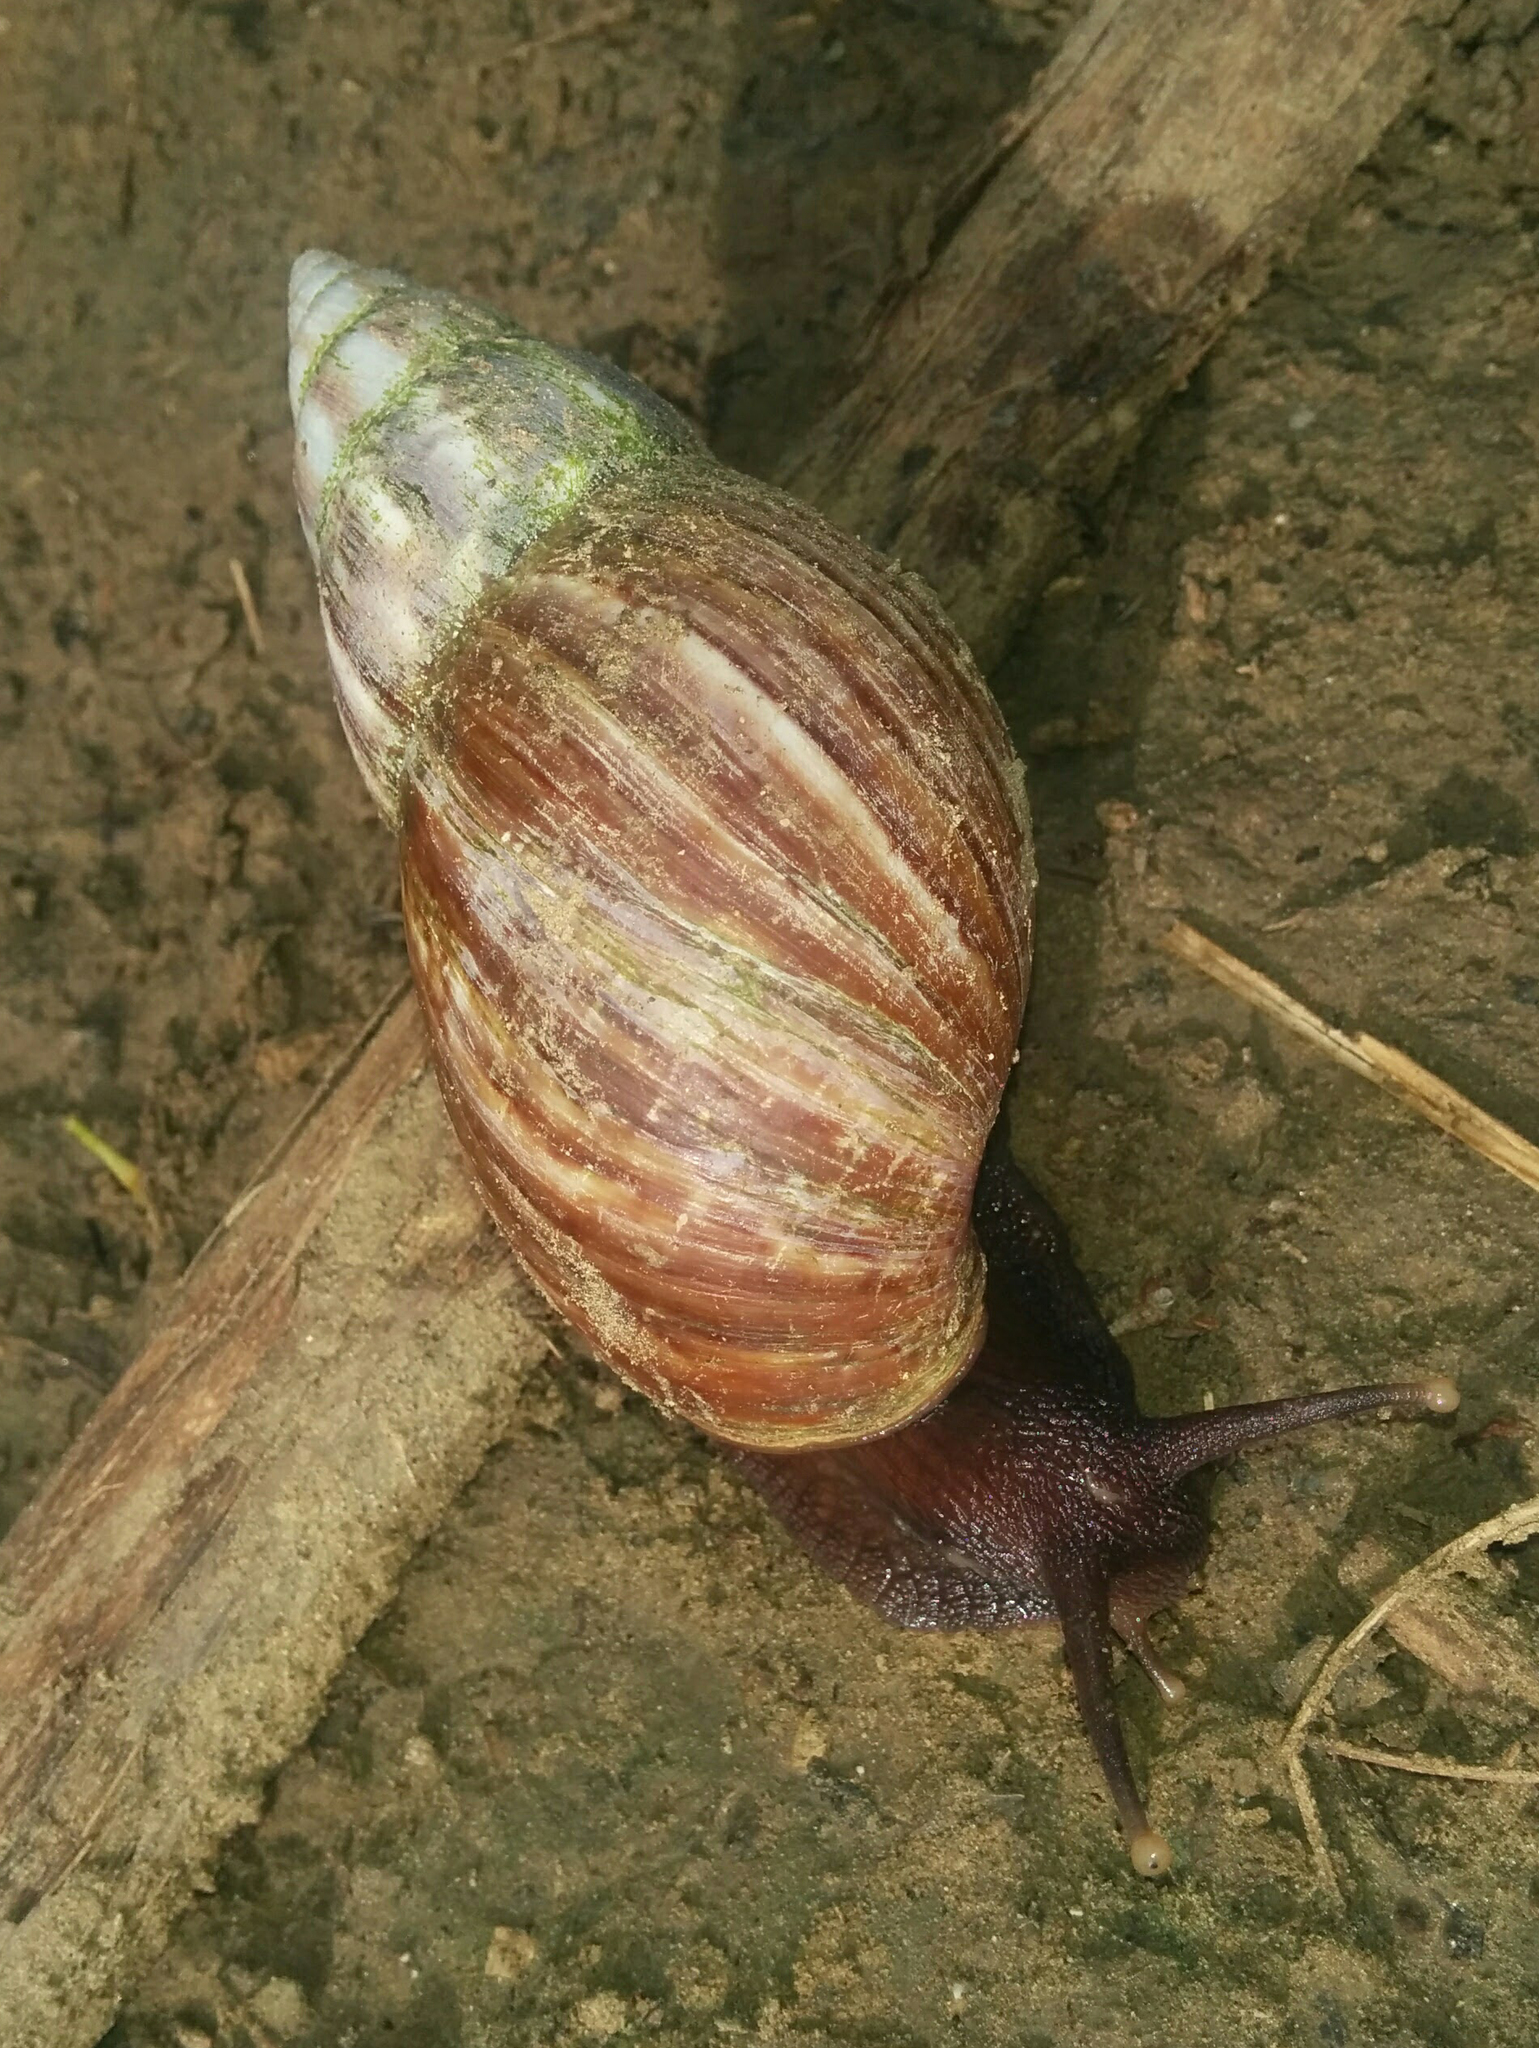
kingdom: Animalia
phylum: Mollusca
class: Gastropoda
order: Stylommatophora
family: Achatinidae
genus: Lissachatina
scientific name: Lissachatina fulica
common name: Giant african snail
